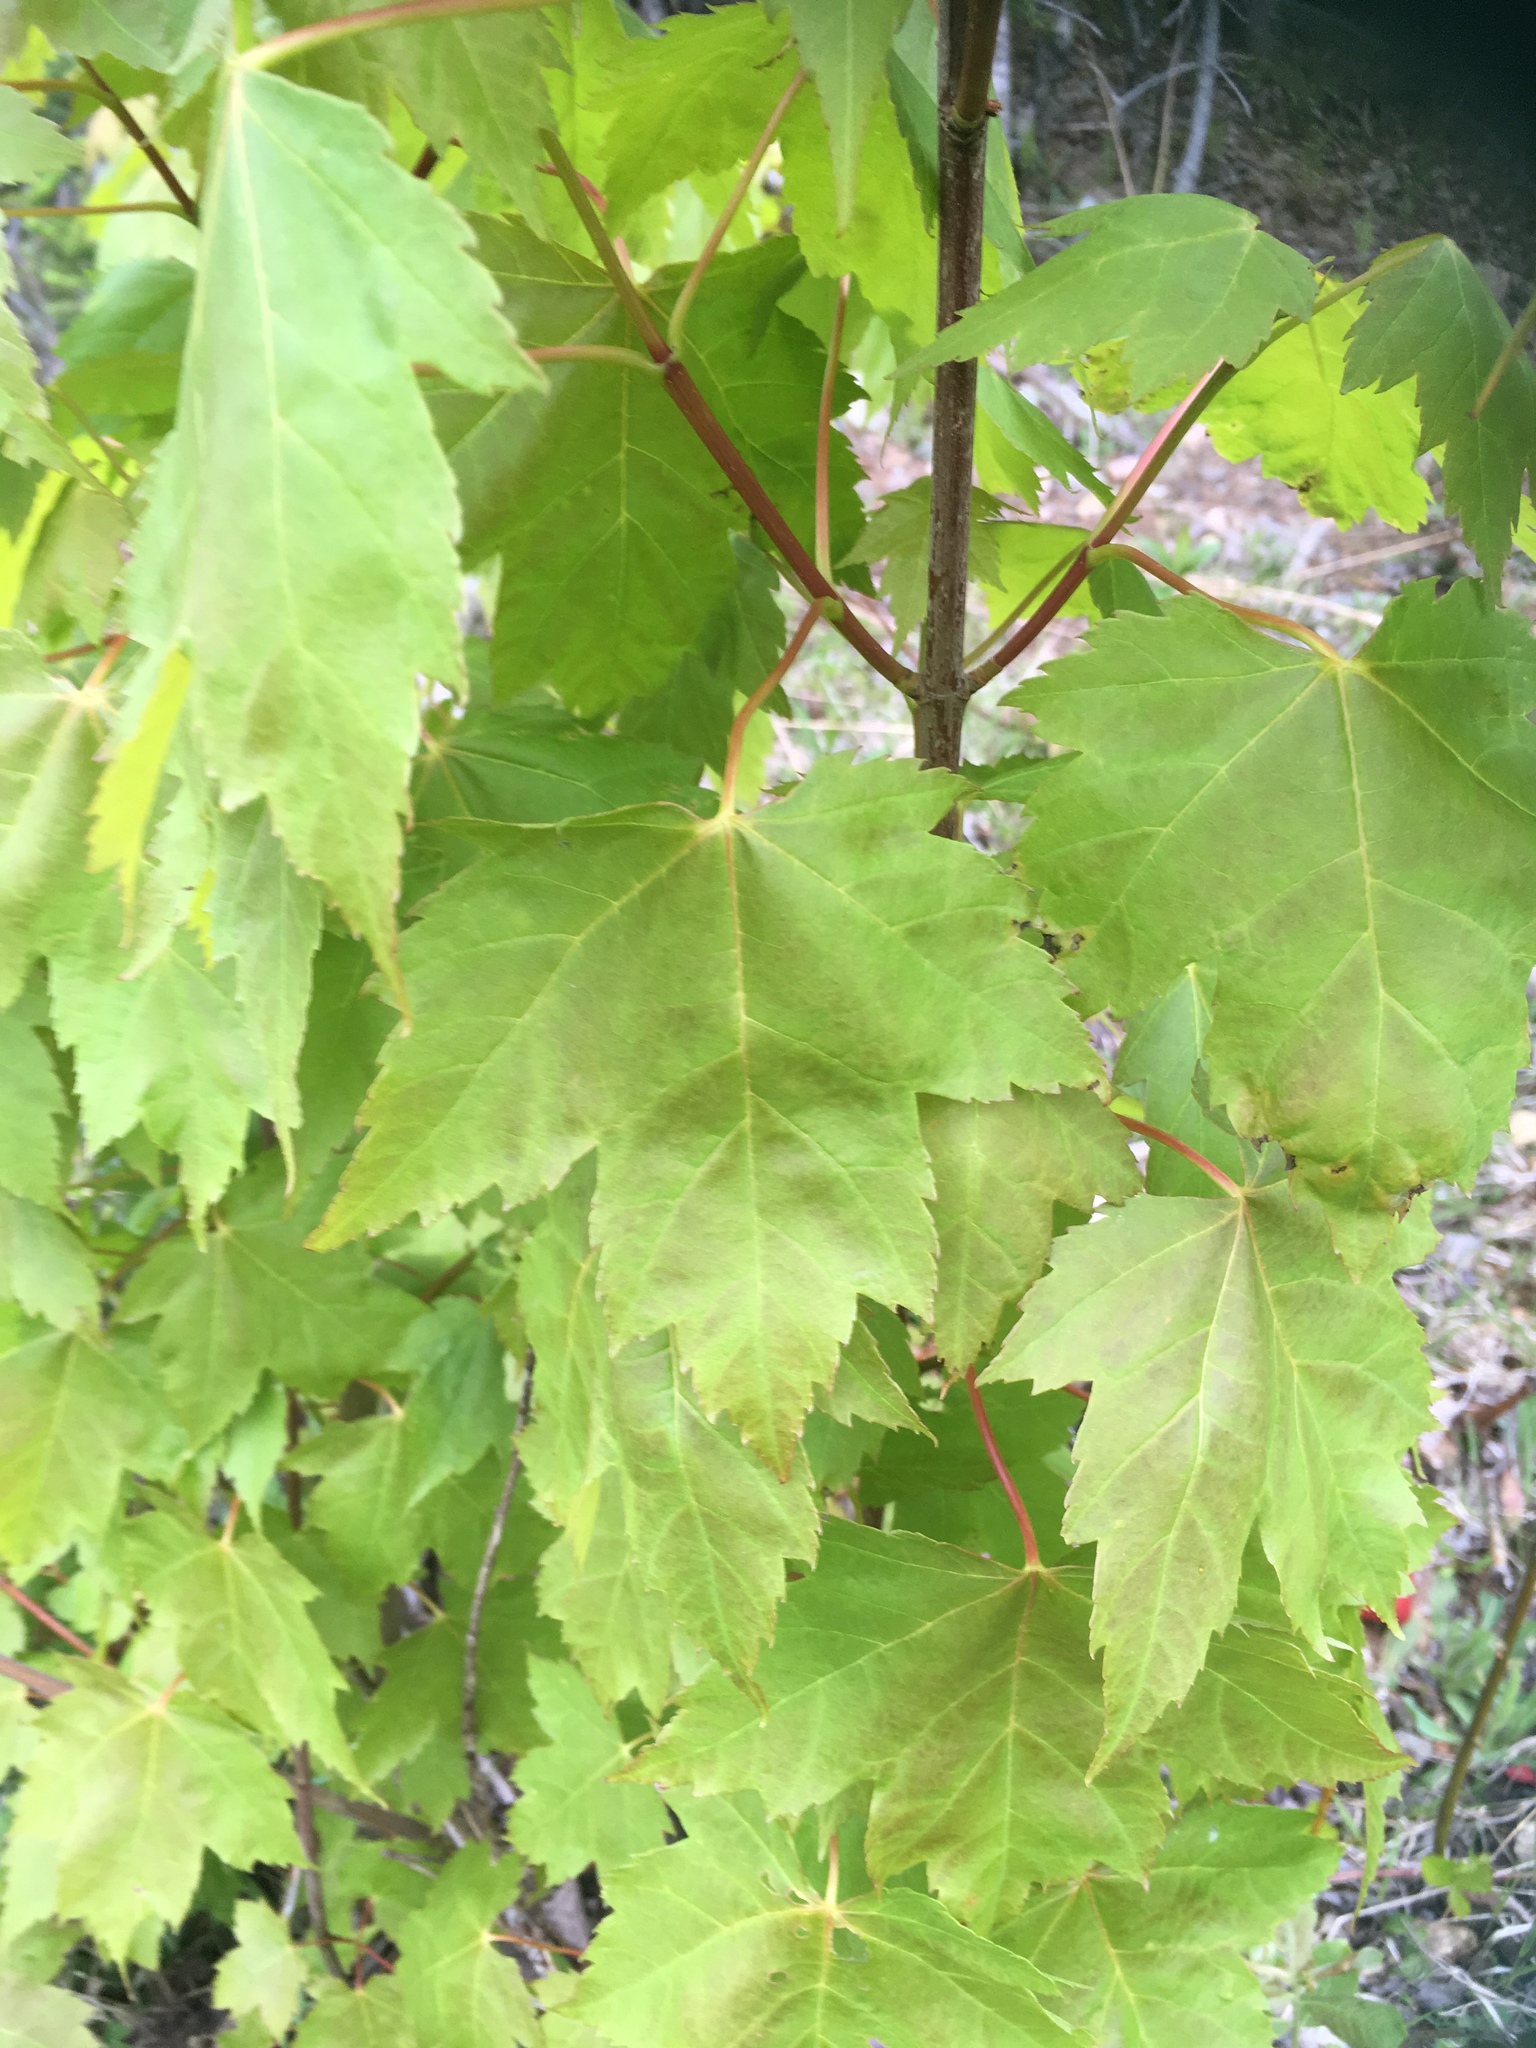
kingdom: Plantae
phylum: Tracheophyta
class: Magnoliopsida
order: Sapindales
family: Sapindaceae
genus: Acer
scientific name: Acer rubrum
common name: Red maple
